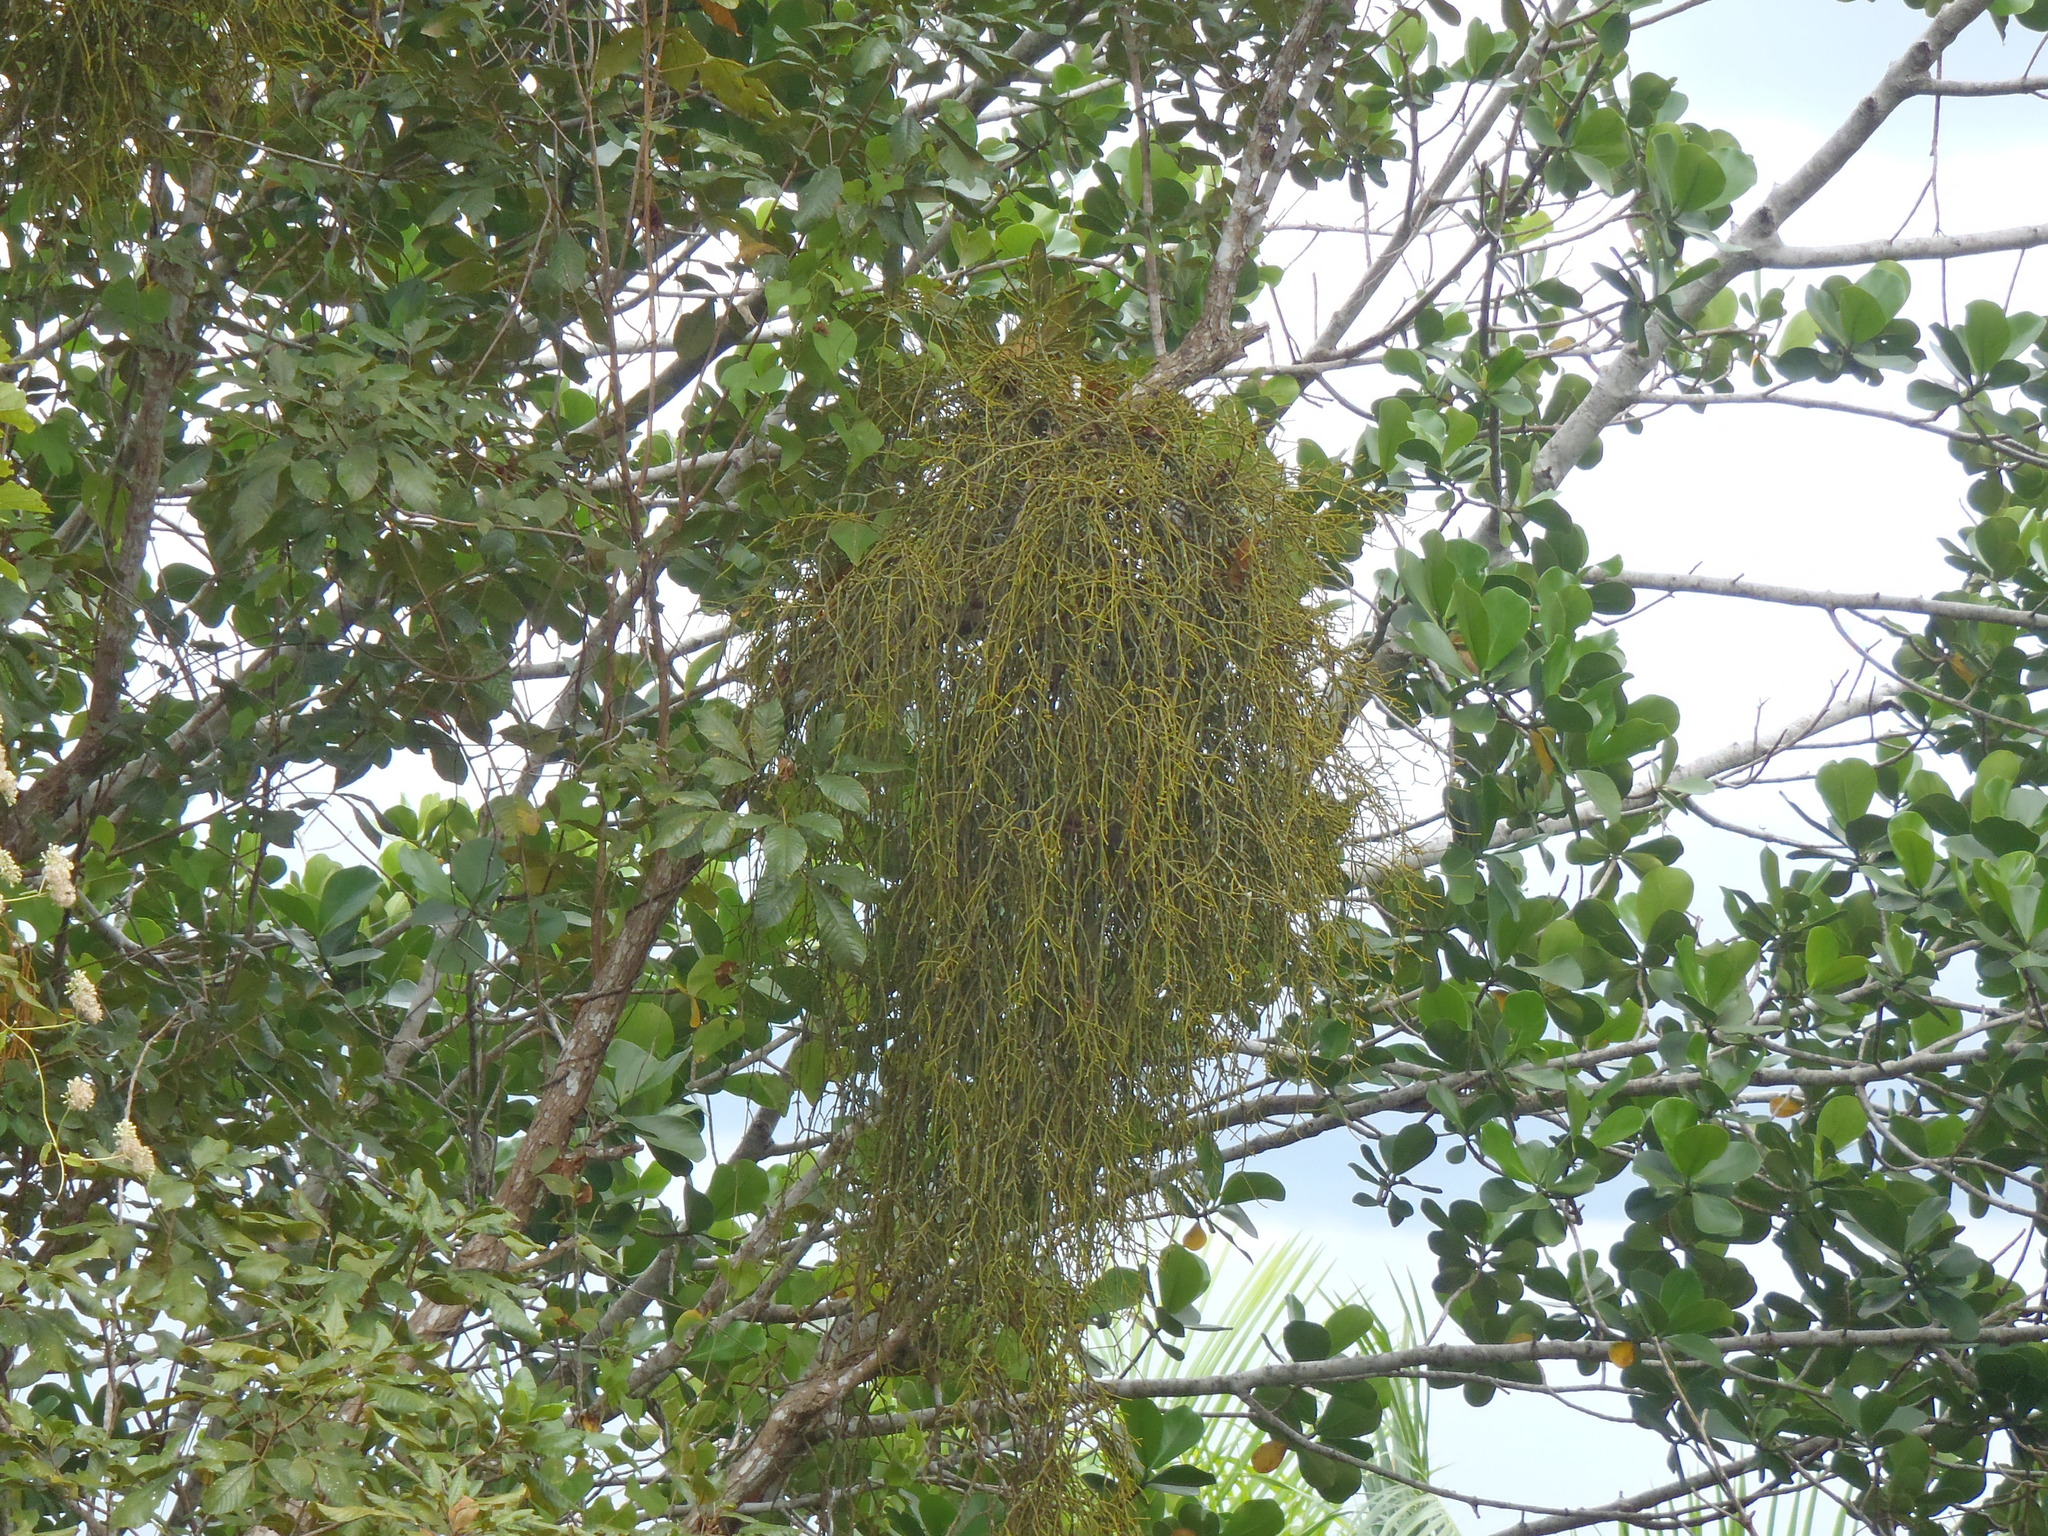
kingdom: Plantae
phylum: Tracheophyta
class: Magnoliopsida
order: Caryophyllales
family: Cactaceae
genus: Rhipsalis
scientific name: Rhipsalis baccifera
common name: Mistletoe cactus
